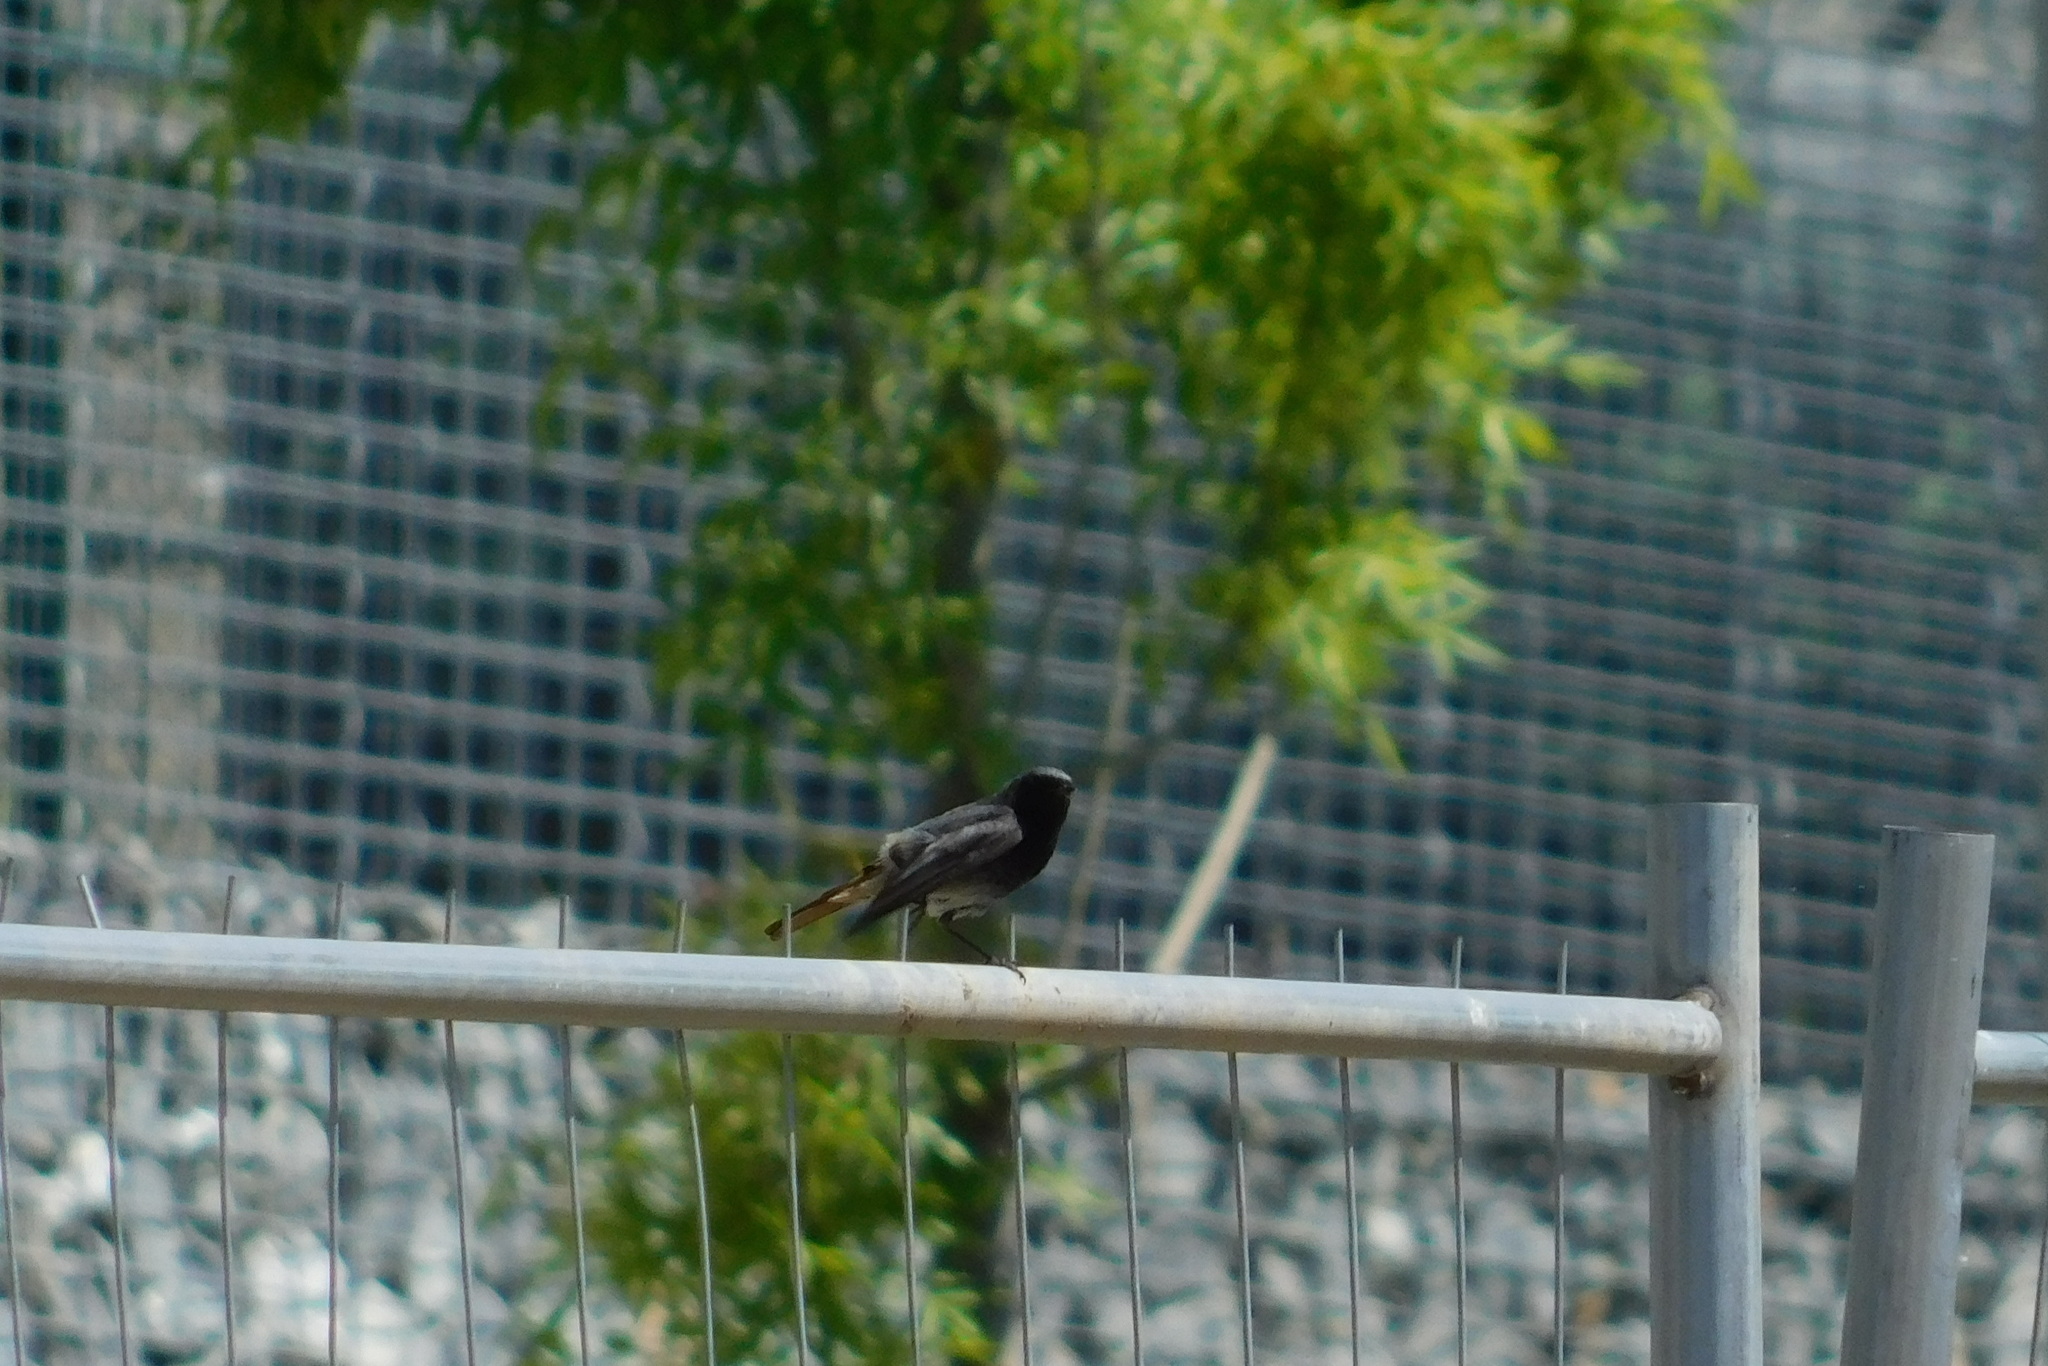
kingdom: Animalia
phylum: Chordata
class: Aves
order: Passeriformes
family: Muscicapidae
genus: Phoenicurus
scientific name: Phoenicurus ochruros
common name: Black redstart
